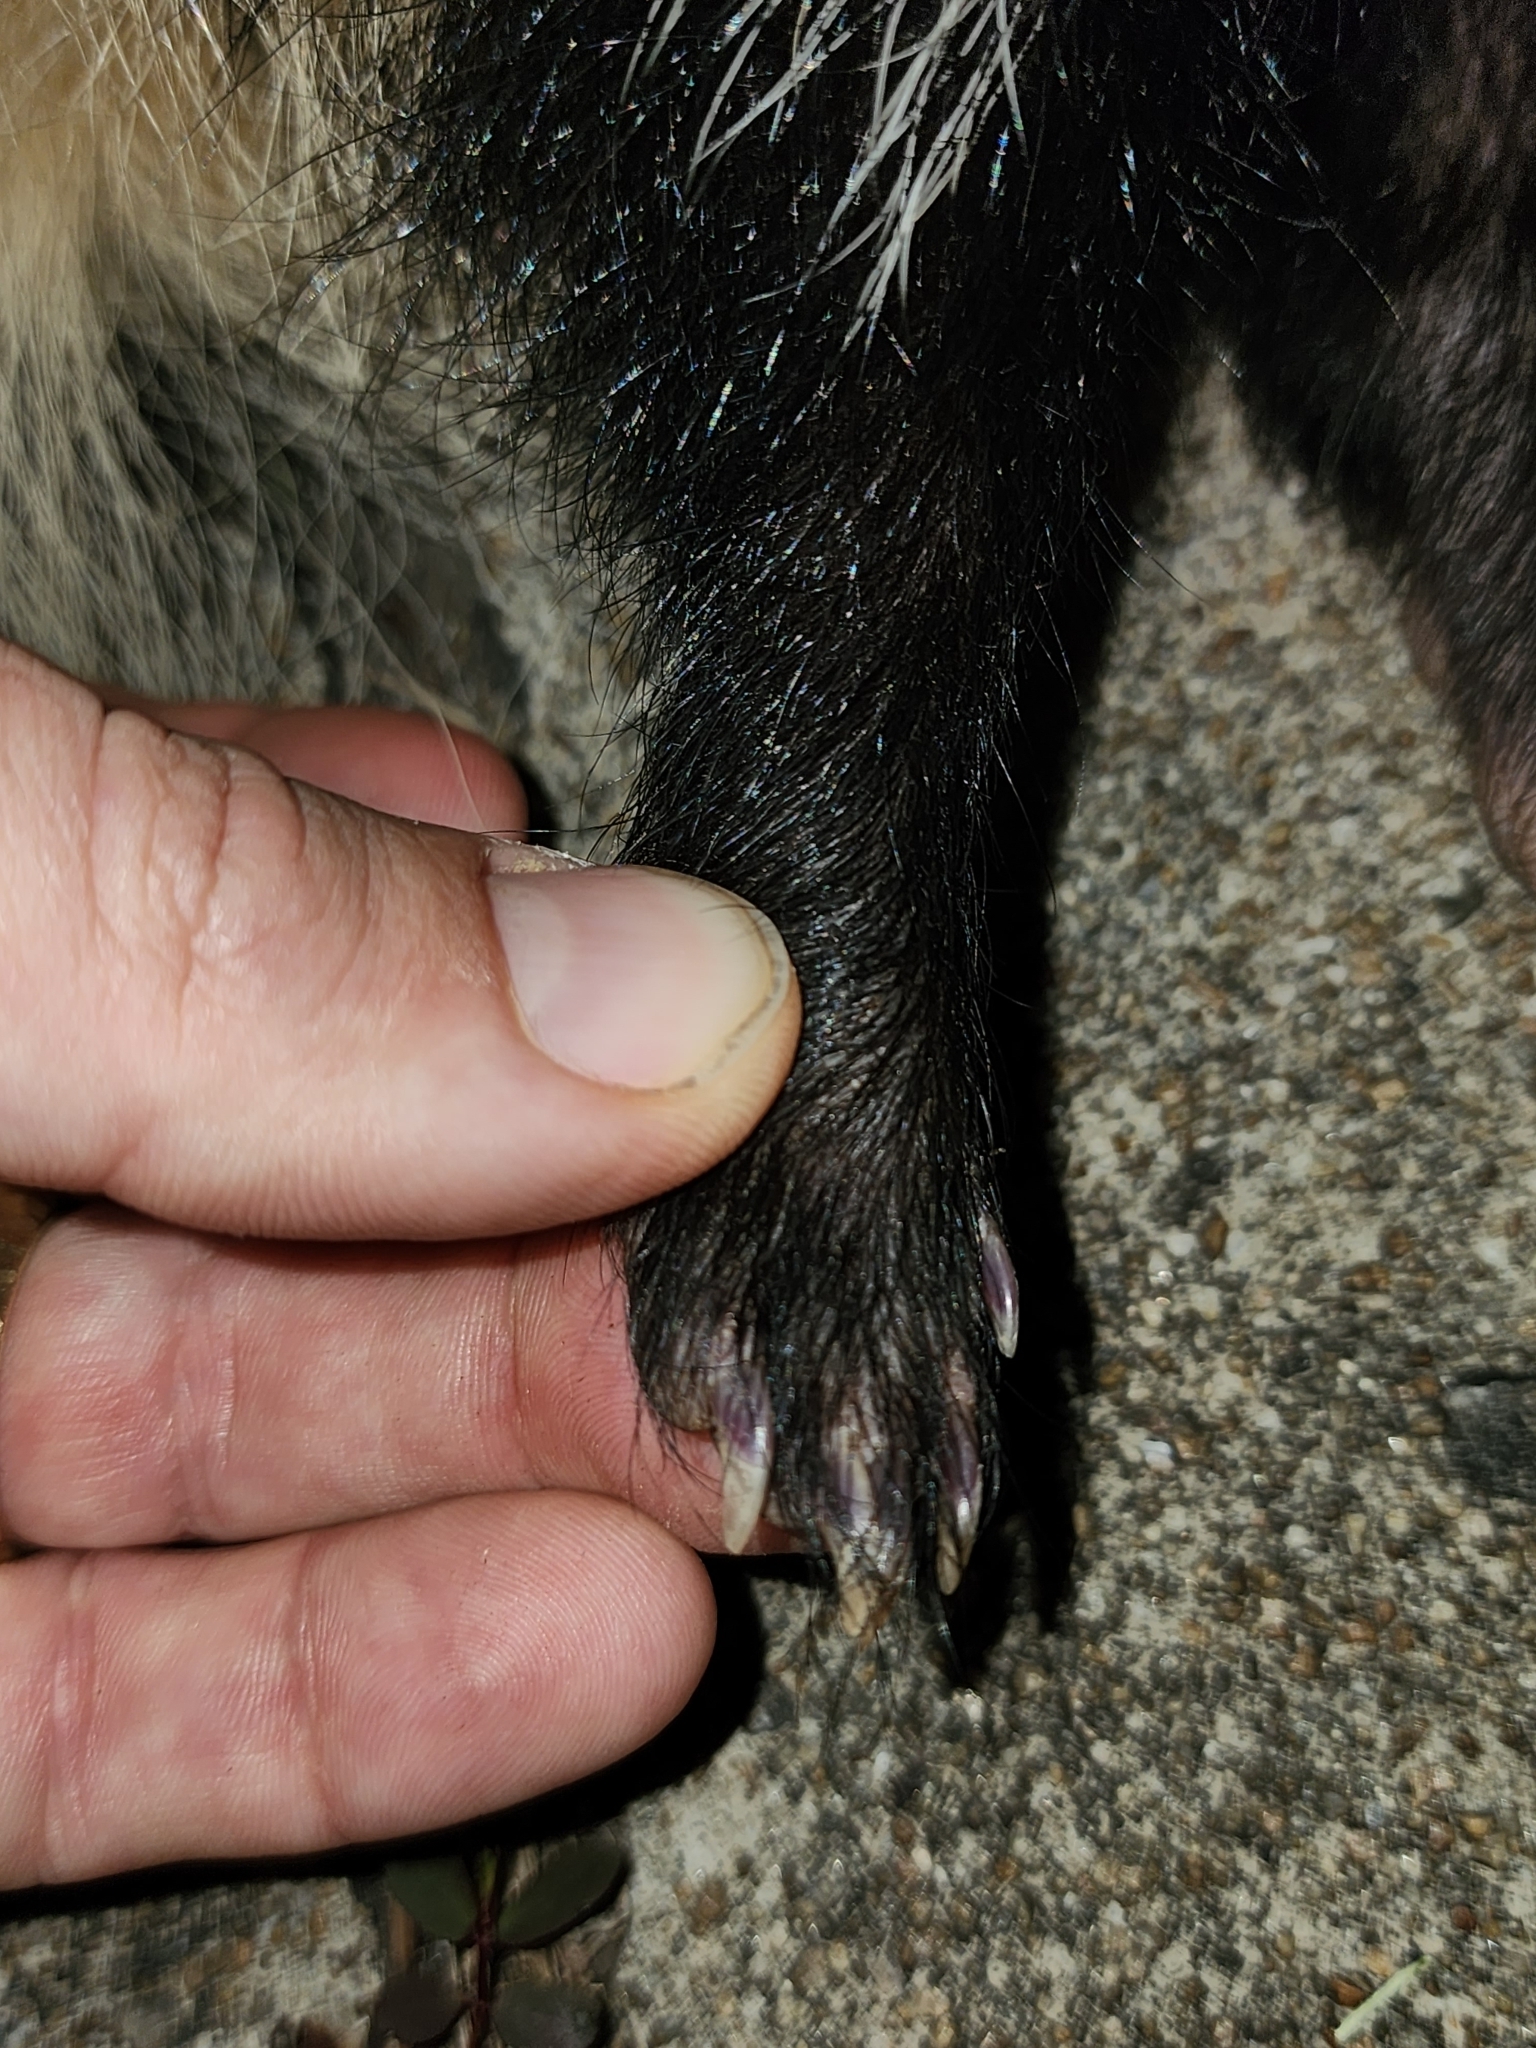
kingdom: Animalia
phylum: Chordata
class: Mammalia
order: Carnivora
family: Mephitidae
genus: Mephitis
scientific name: Mephitis mephitis
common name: Striped skunk
